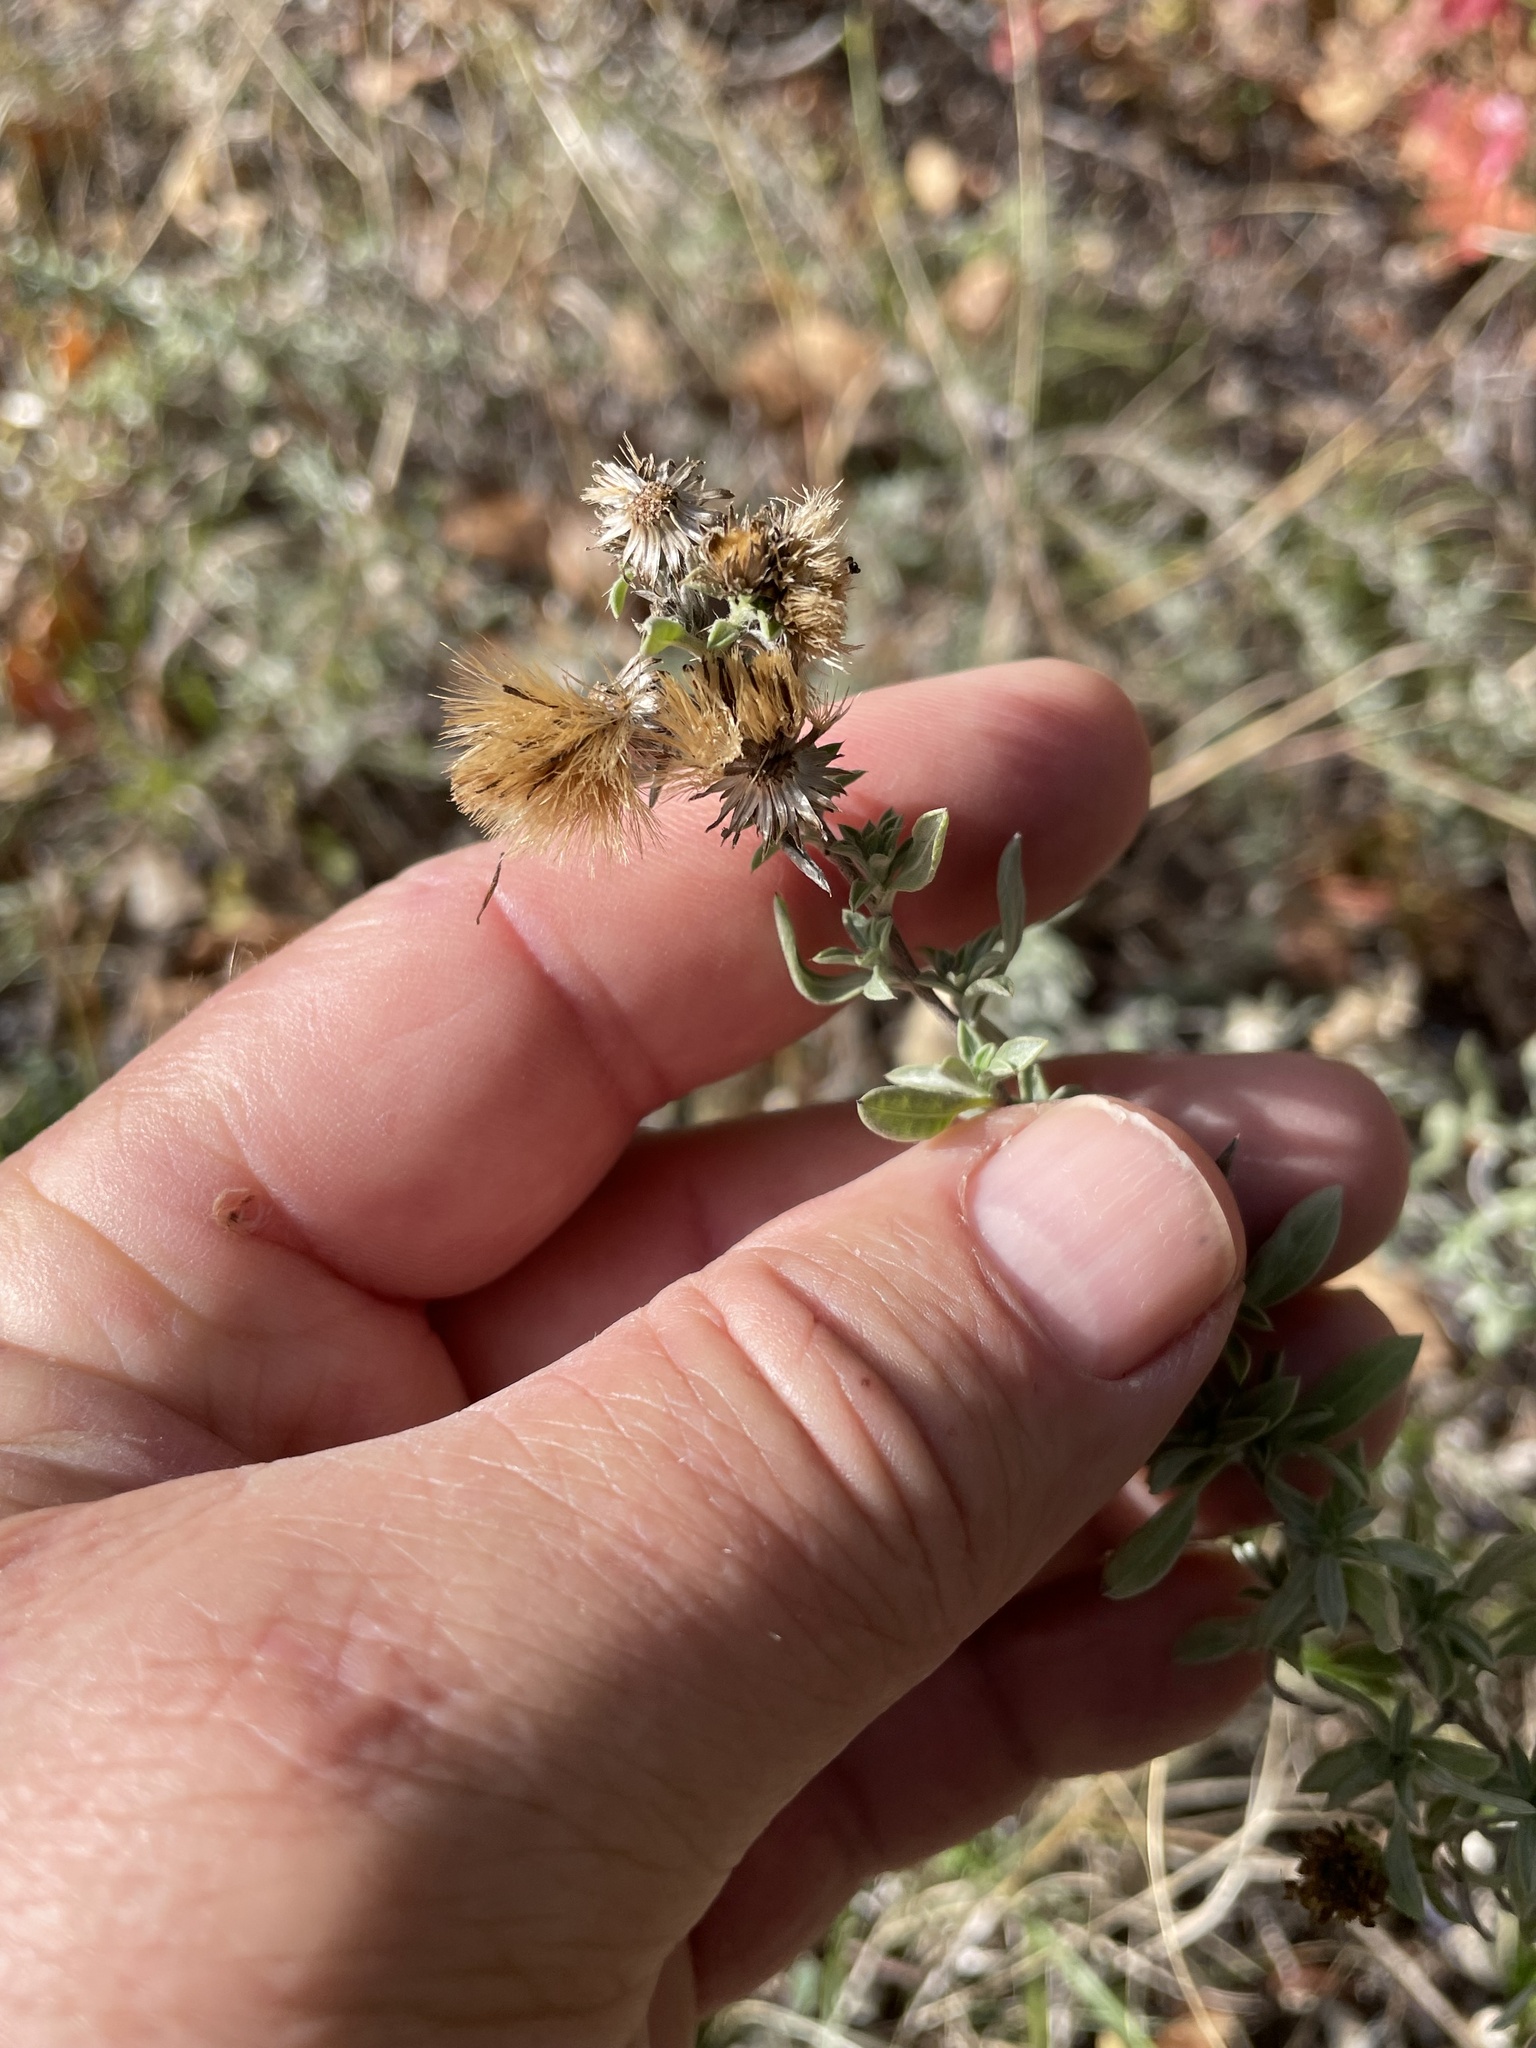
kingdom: Plantae
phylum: Tracheophyta
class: Magnoliopsida
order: Asterales
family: Asteraceae
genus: Heterotheca
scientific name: Heterotheca canescens
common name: Hoary golden-aster
